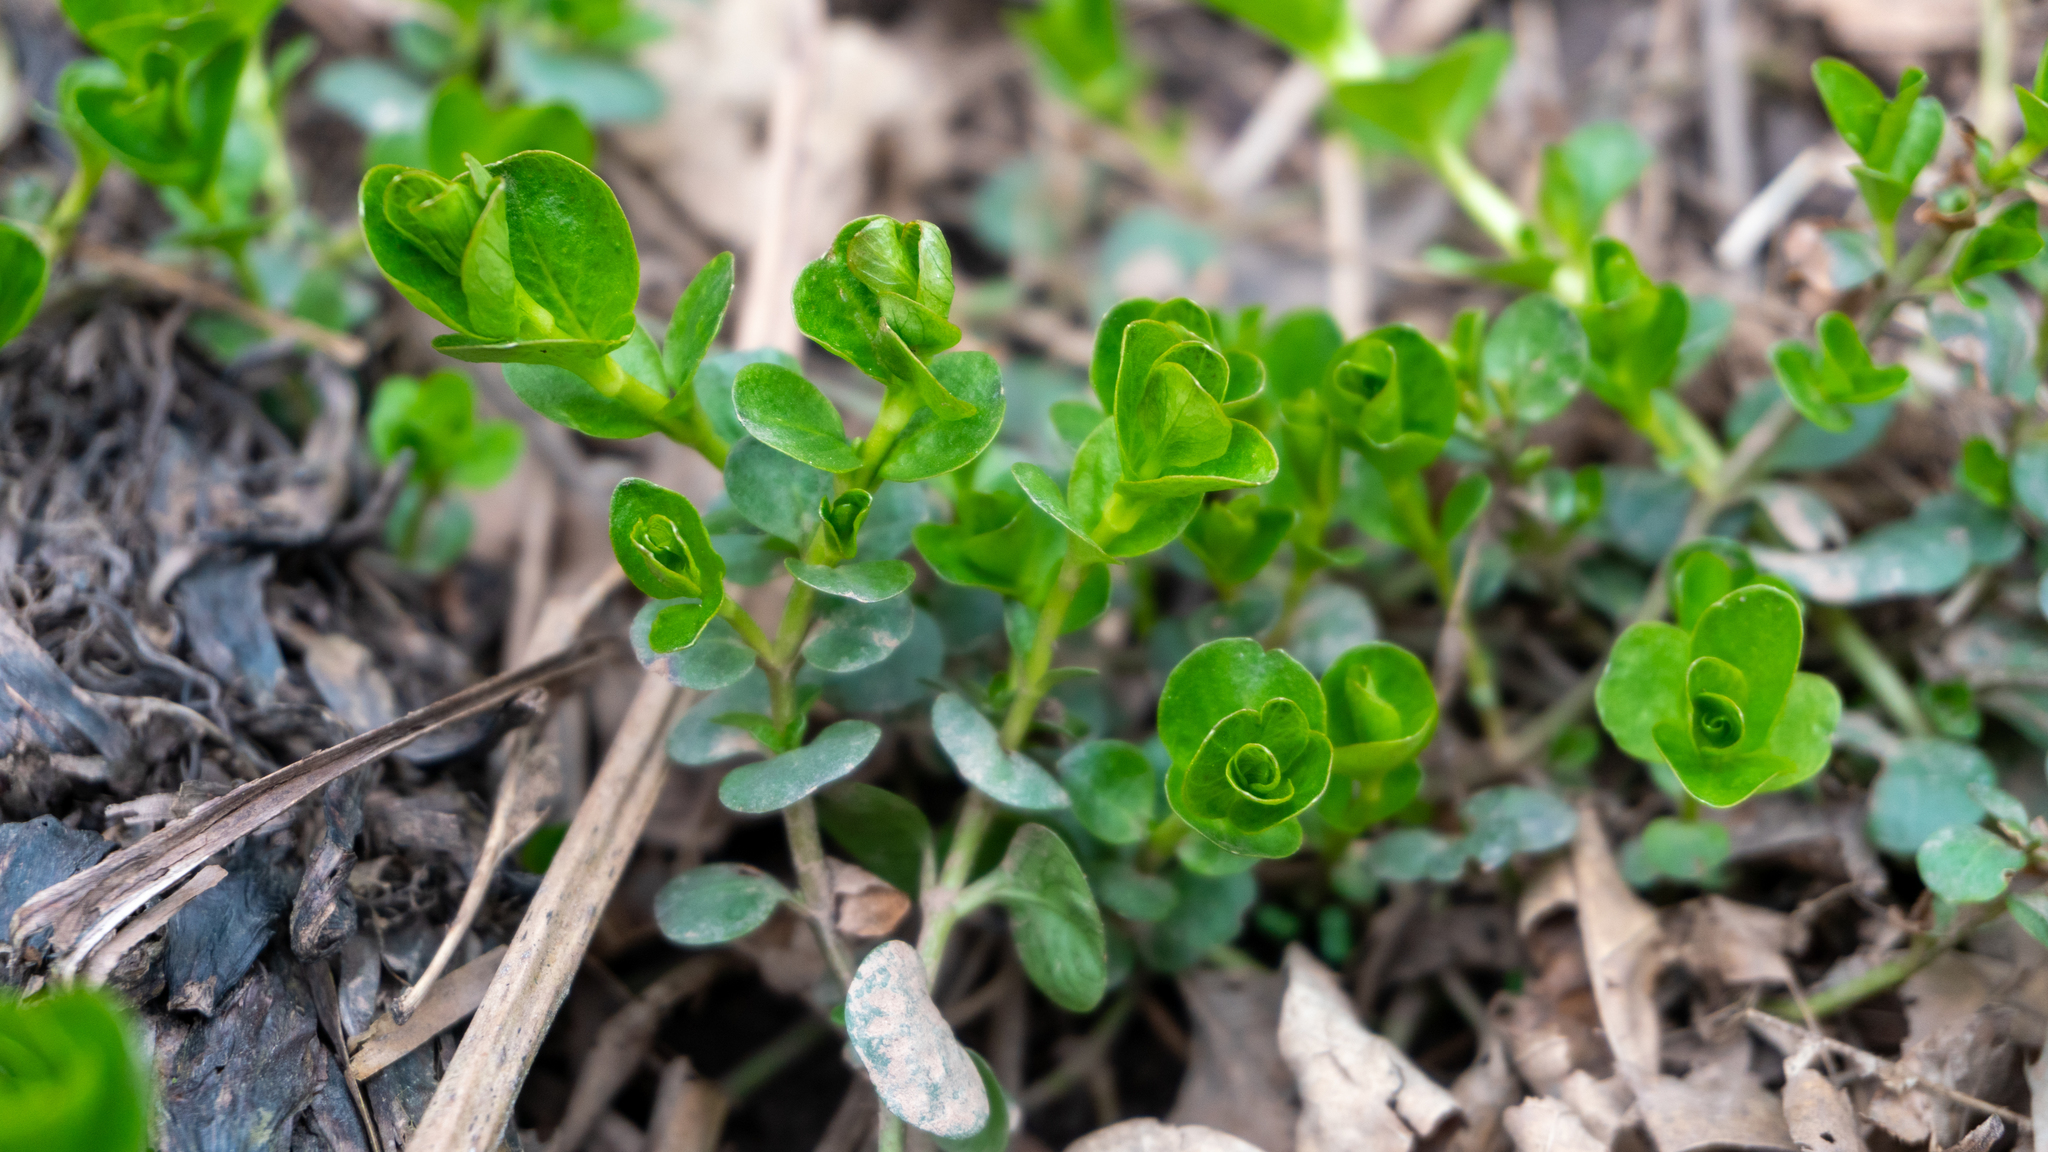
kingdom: Plantae
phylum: Tracheophyta
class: Magnoliopsida
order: Ericales
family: Primulaceae
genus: Lysimachia
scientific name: Lysimachia nummularia
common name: Moneywort
